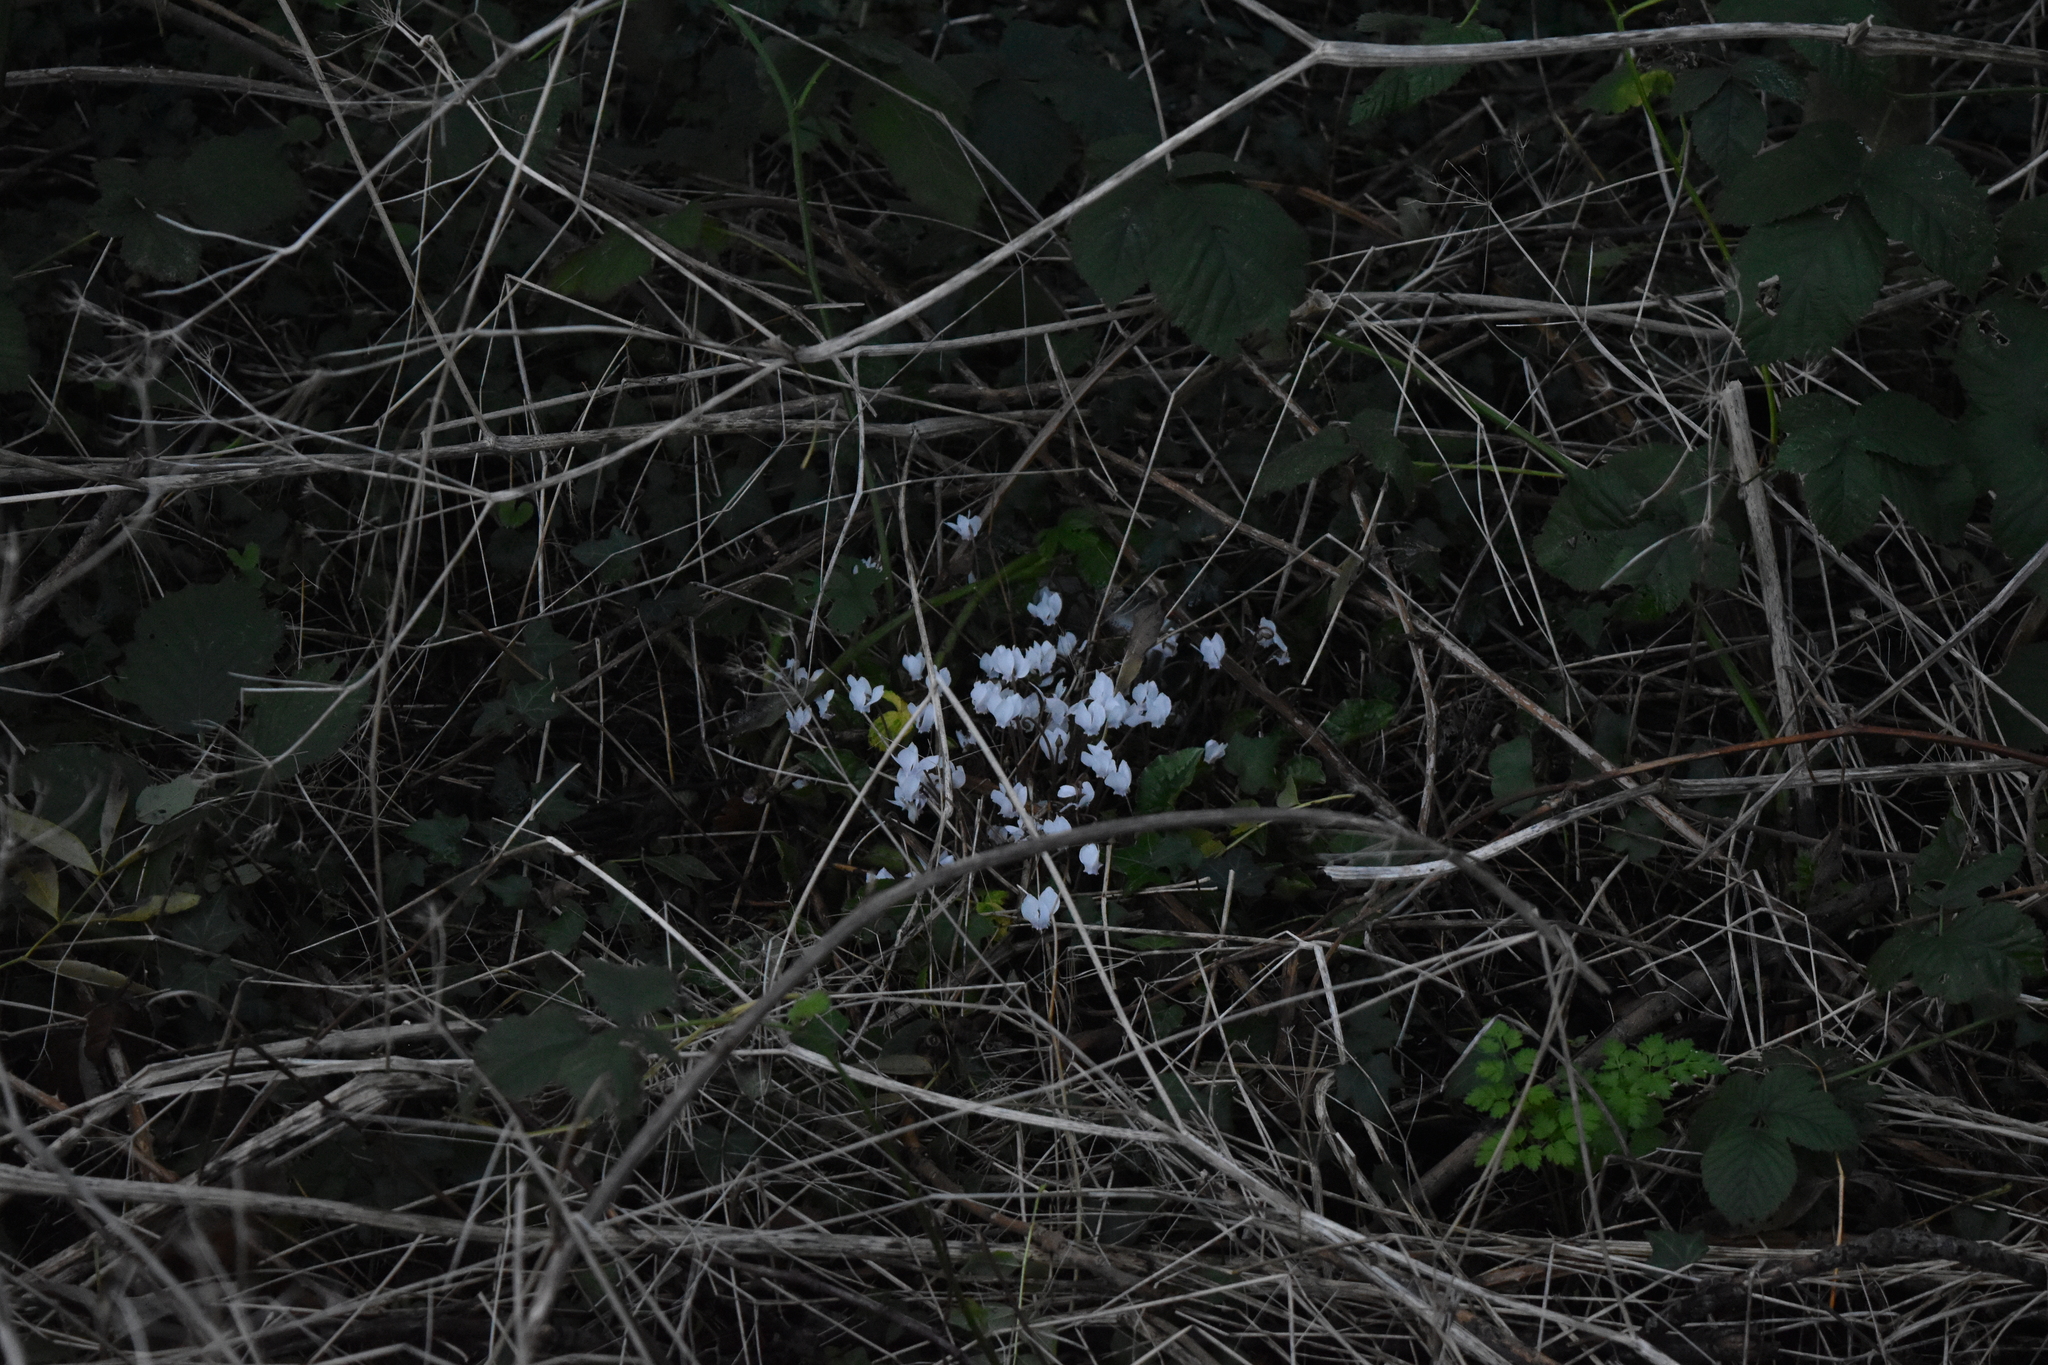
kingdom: Plantae
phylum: Tracheophyta
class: Magnoliopsida
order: Ericales
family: Primulaceae
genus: Cyclamen
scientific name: Cyclamen hederifolium
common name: Sowbread
